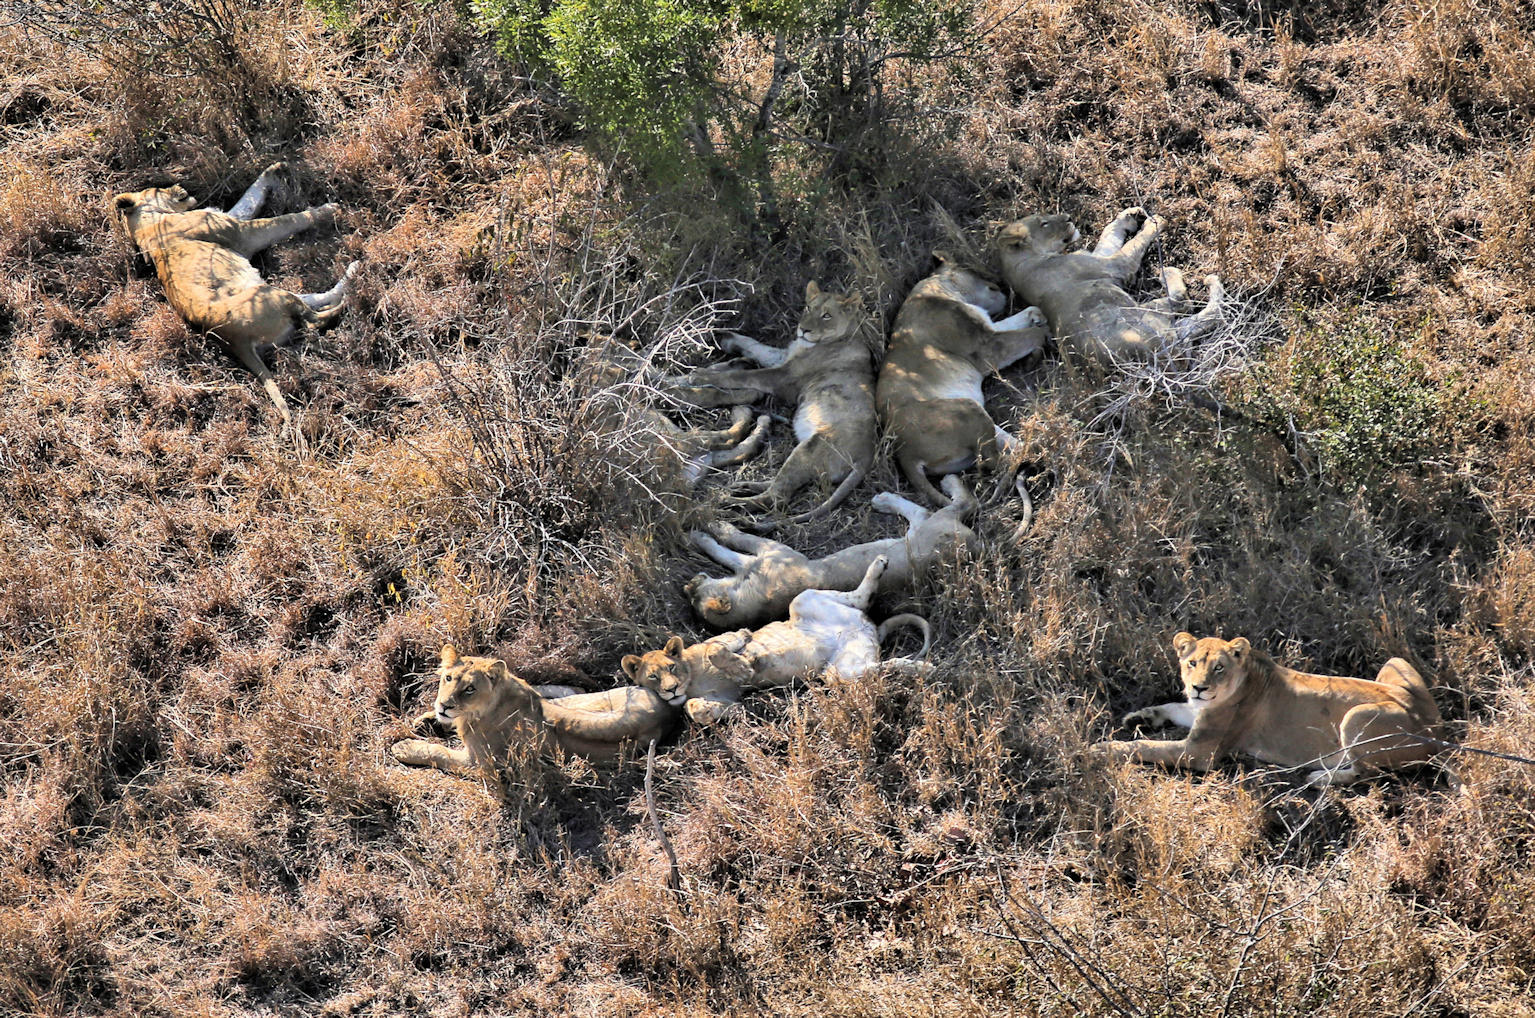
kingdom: Animalia
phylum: Chordata
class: Mammalia
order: Carnivora
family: Felidae
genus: Panthera
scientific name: Panthera leo
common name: Lion
